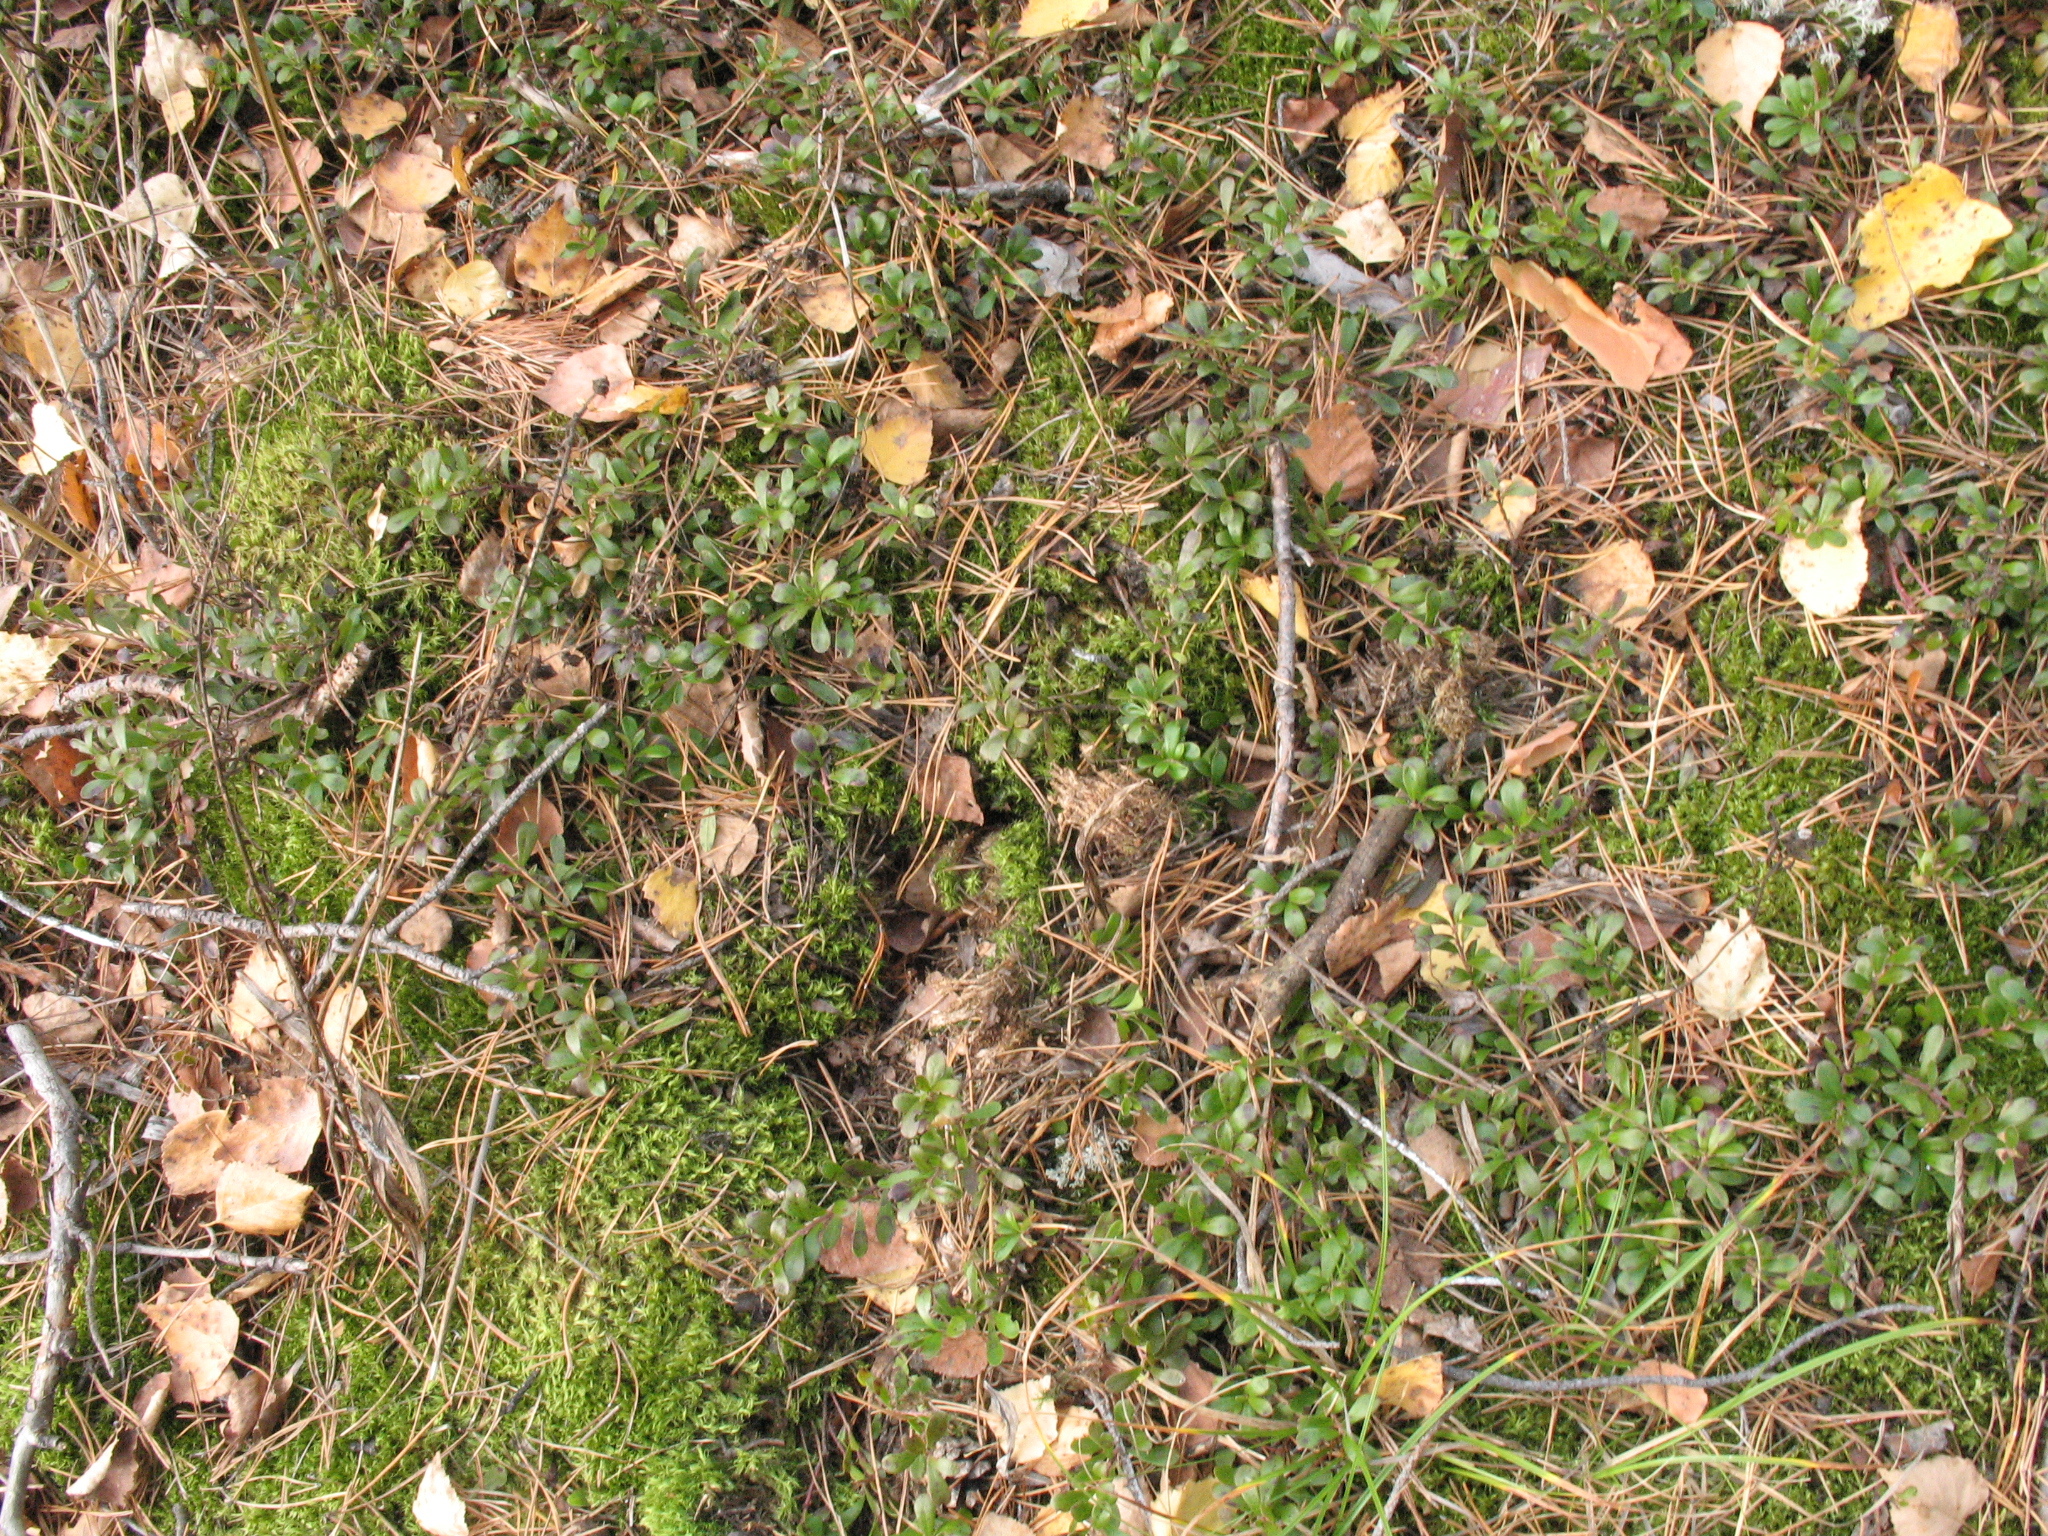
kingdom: Plantae
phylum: Tracheophyta
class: Magnoliopsida
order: Ericales
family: Ericaceae
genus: Arctostaphylos
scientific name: Arctostaphylos uva-ursi
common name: Bearberry
